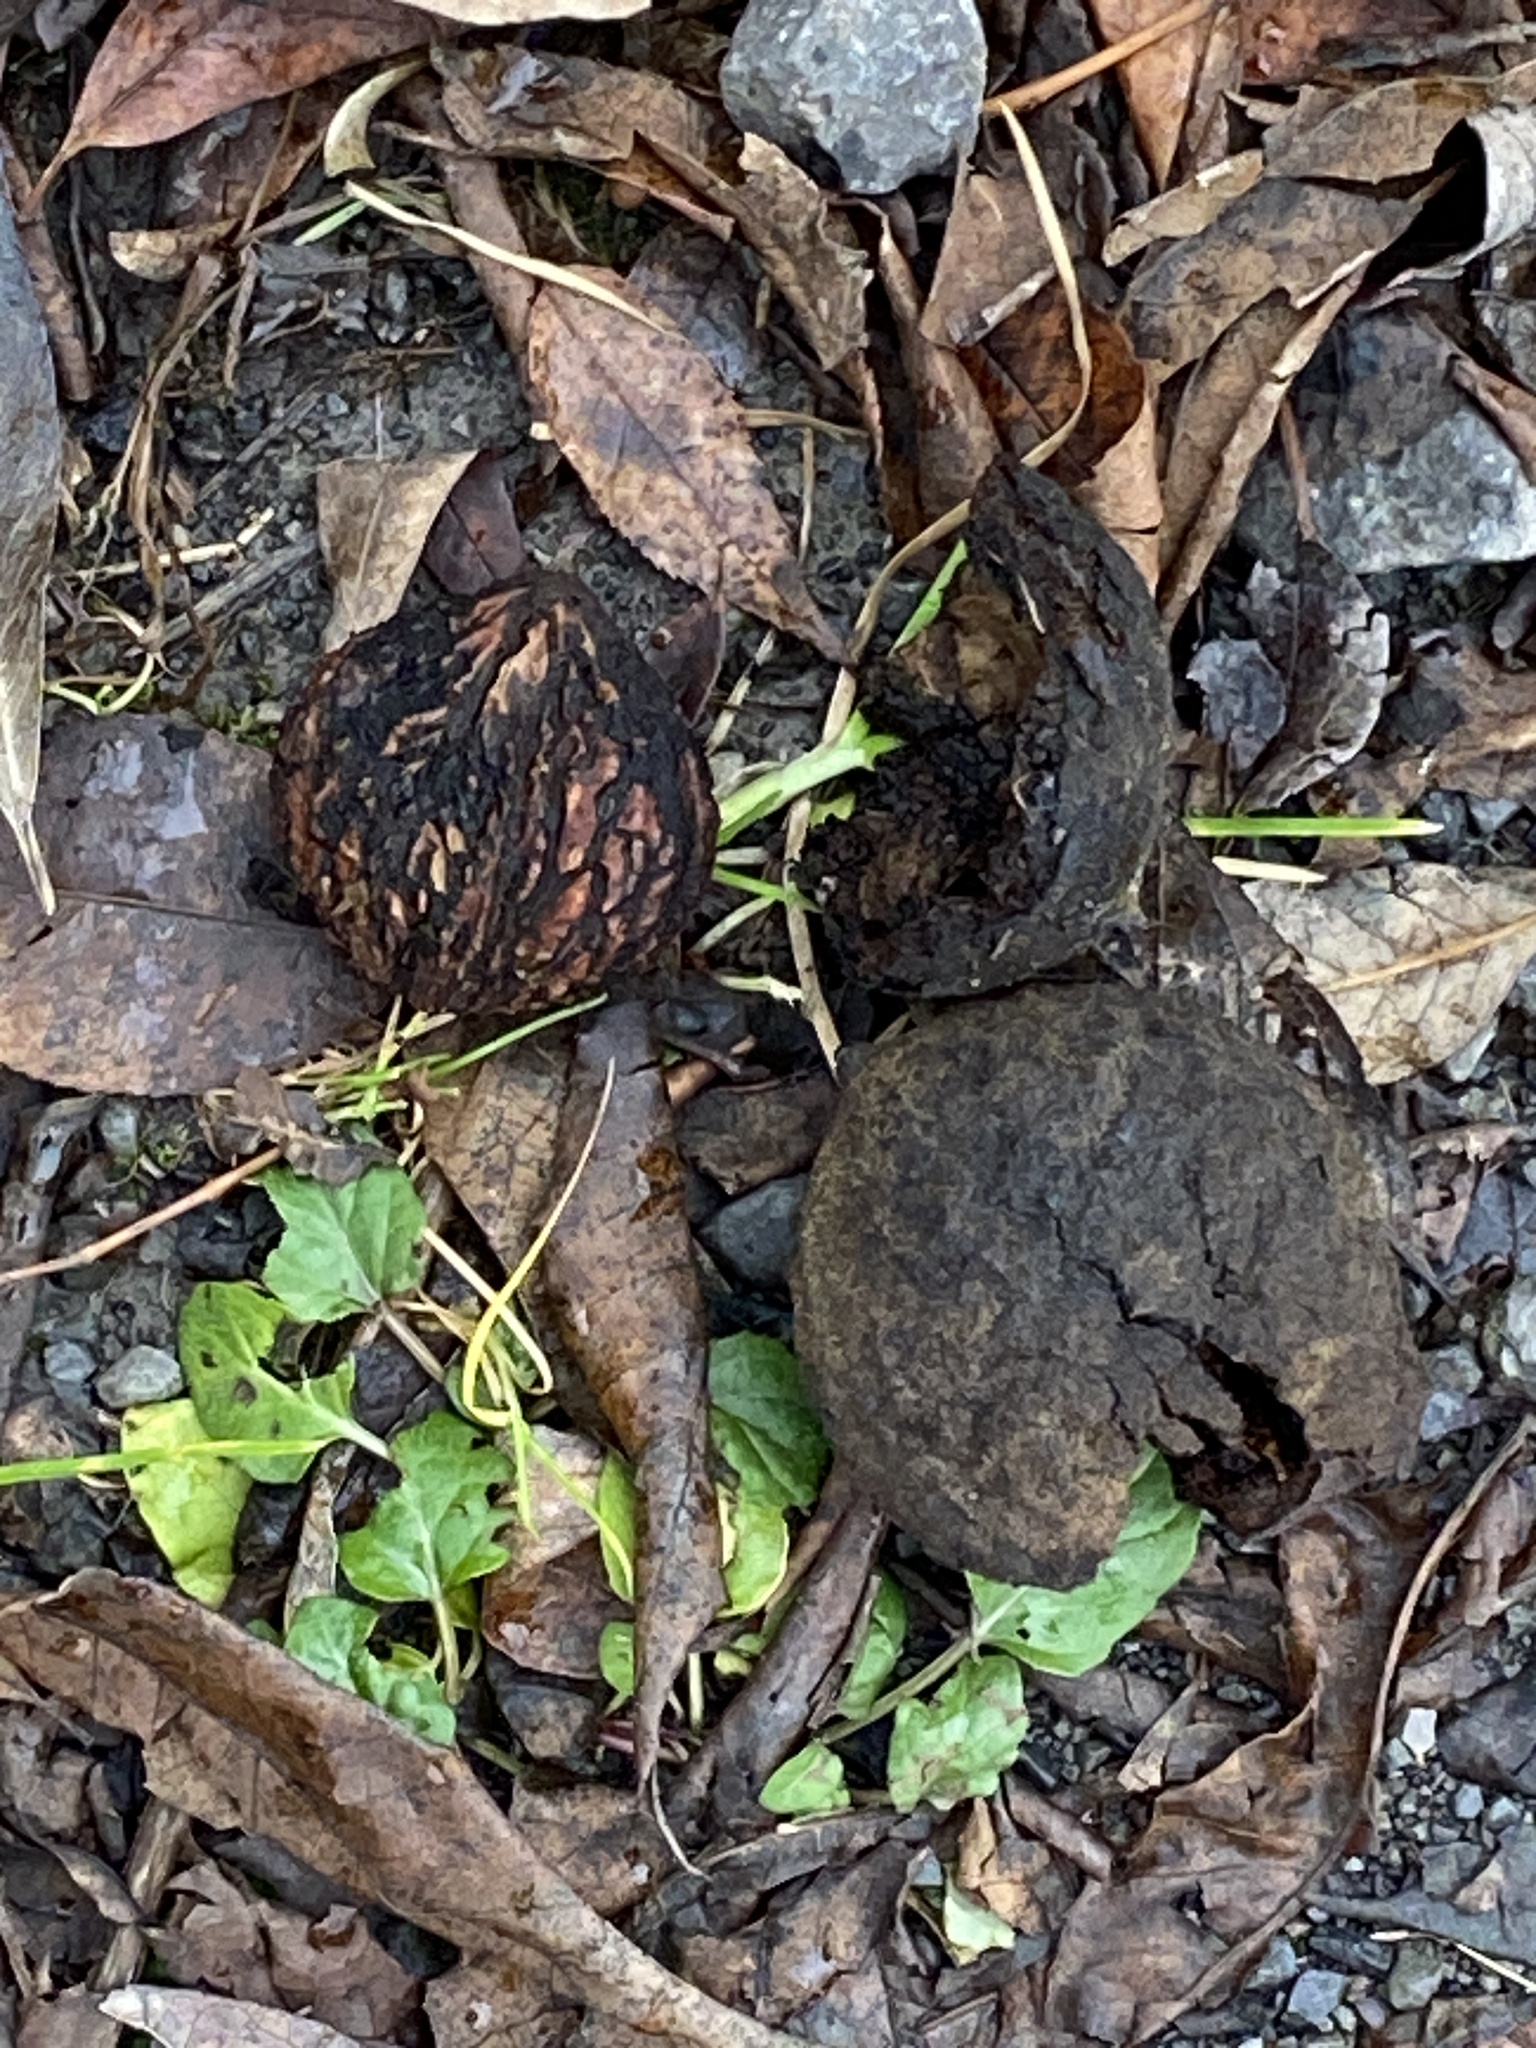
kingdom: Plantae
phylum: Tracheophyta
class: Magnoliopsida
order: Fagales
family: Juglandaceae
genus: Juglans
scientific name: Juglans nigra
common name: Black walnut
